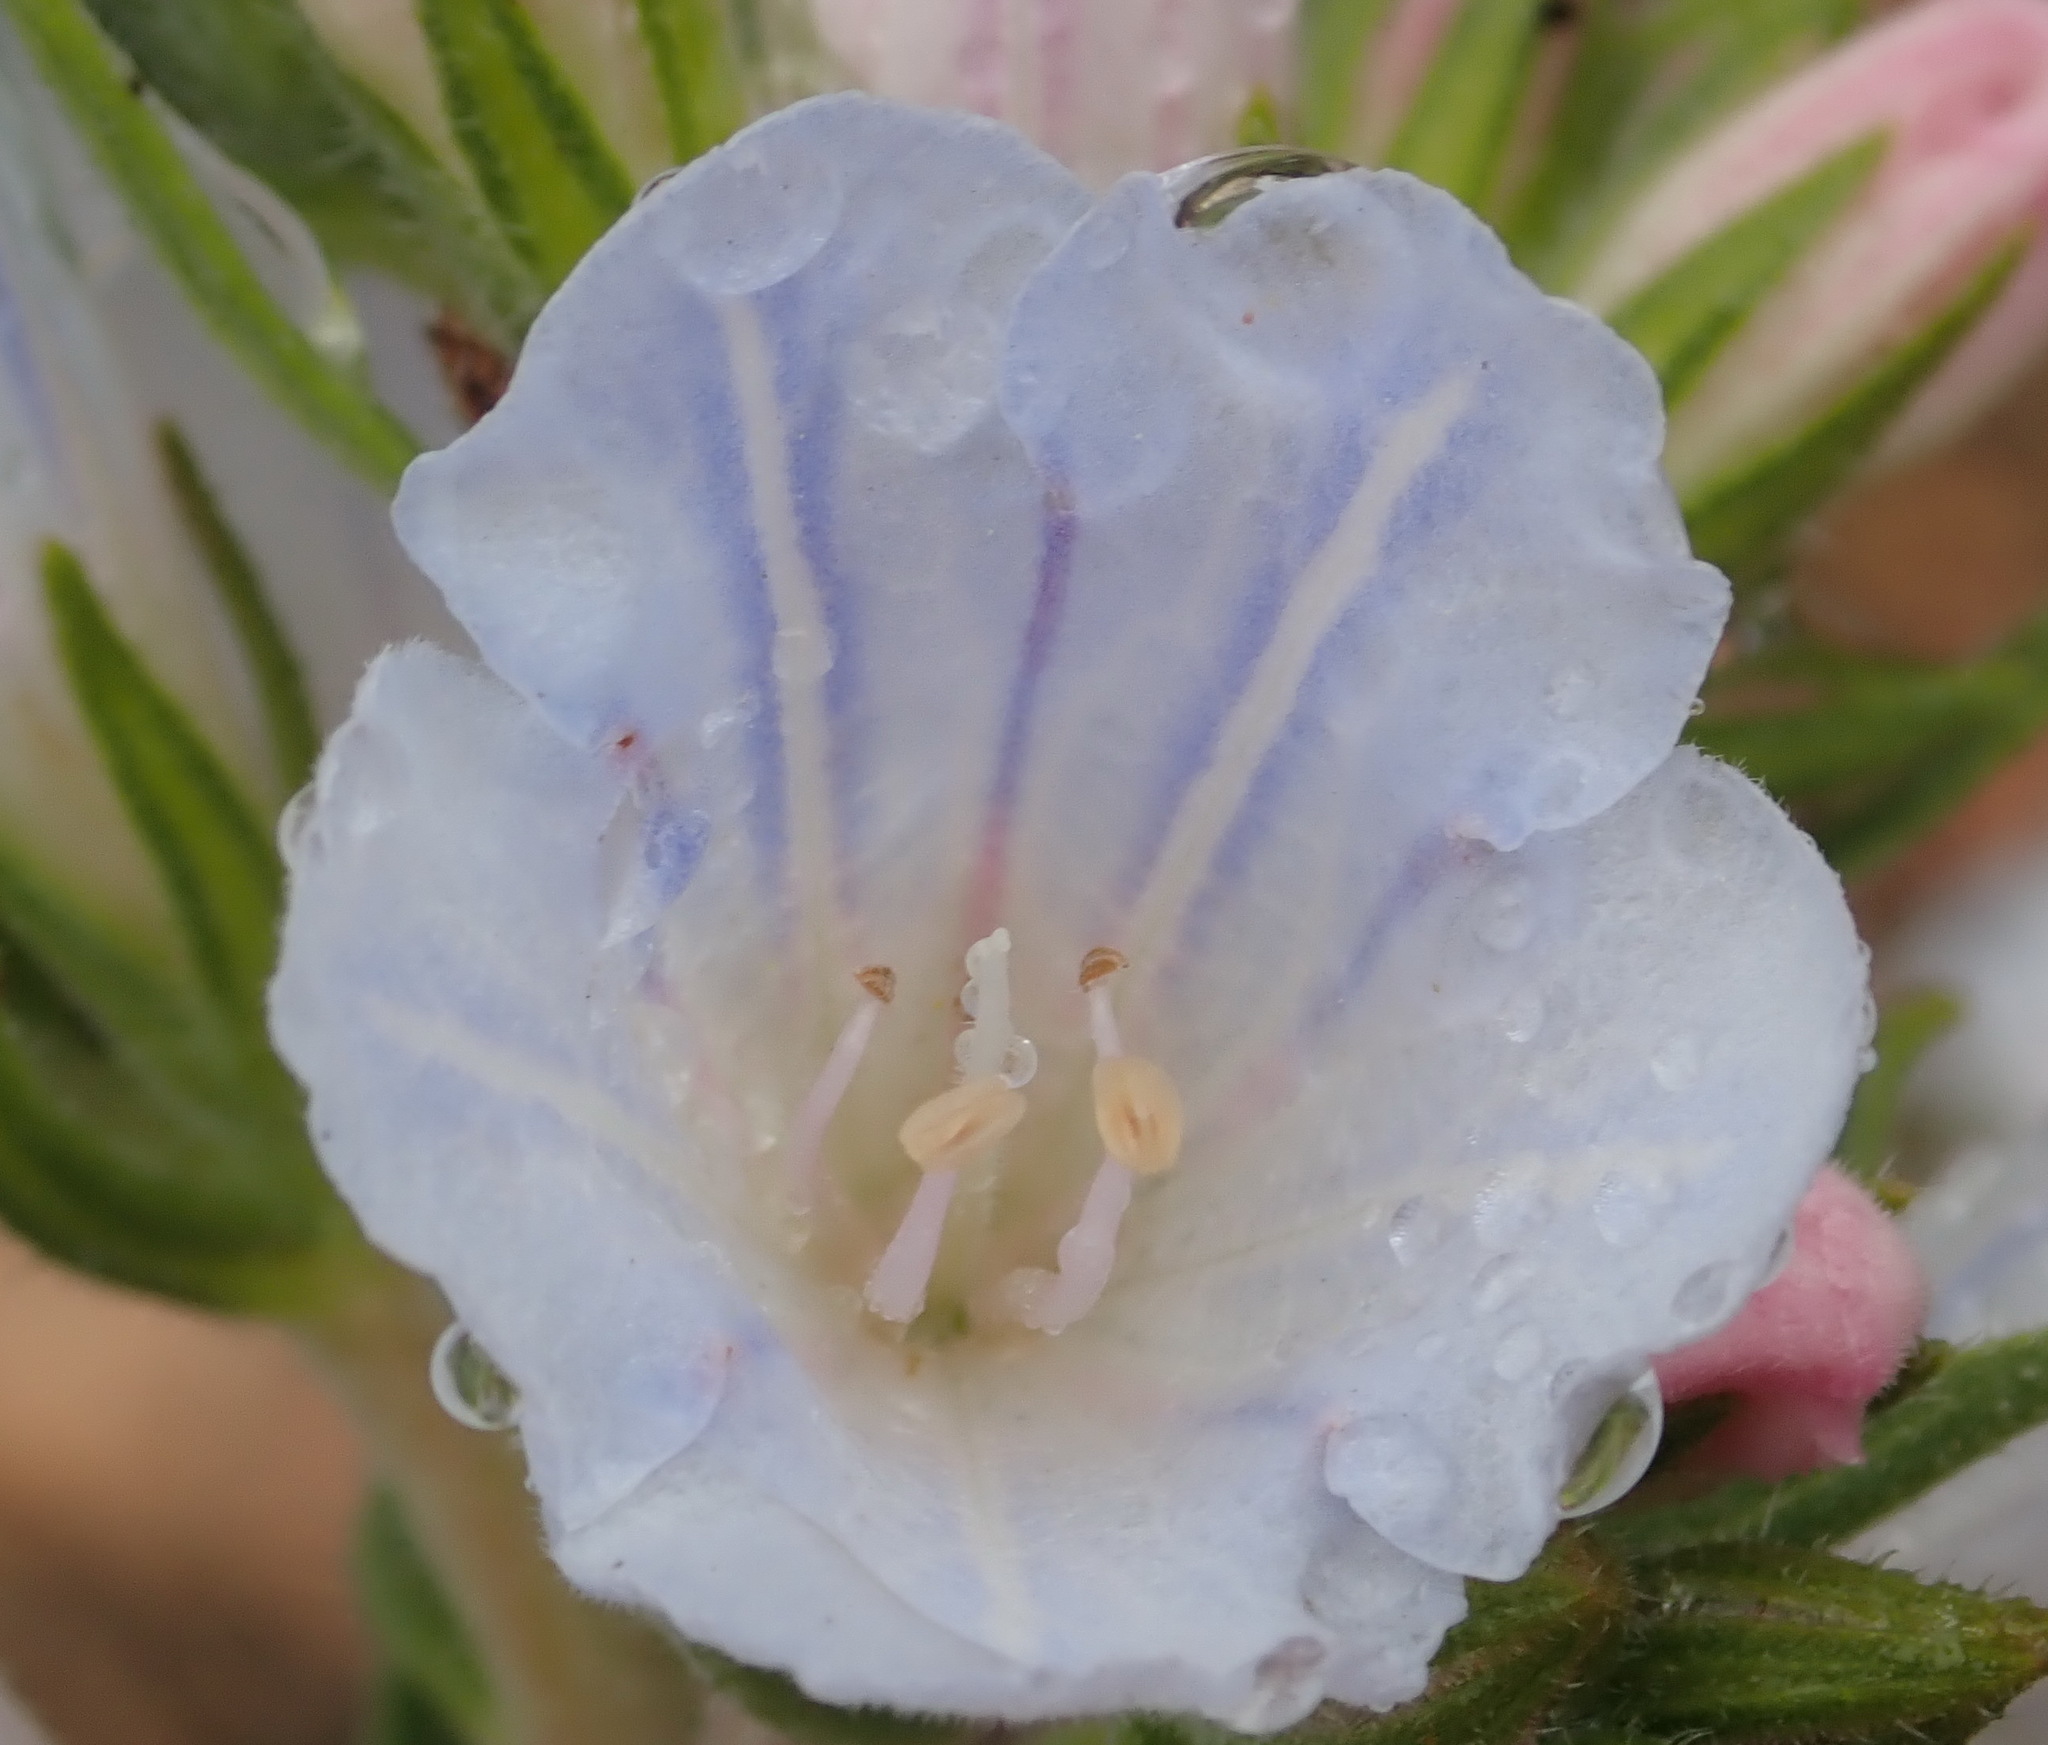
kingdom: Plantae
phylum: Tracheophyta
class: Magnoliopsida
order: Boraginales
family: Boraginaceae
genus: Lobostemon
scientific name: Lobostemon fruticosus
